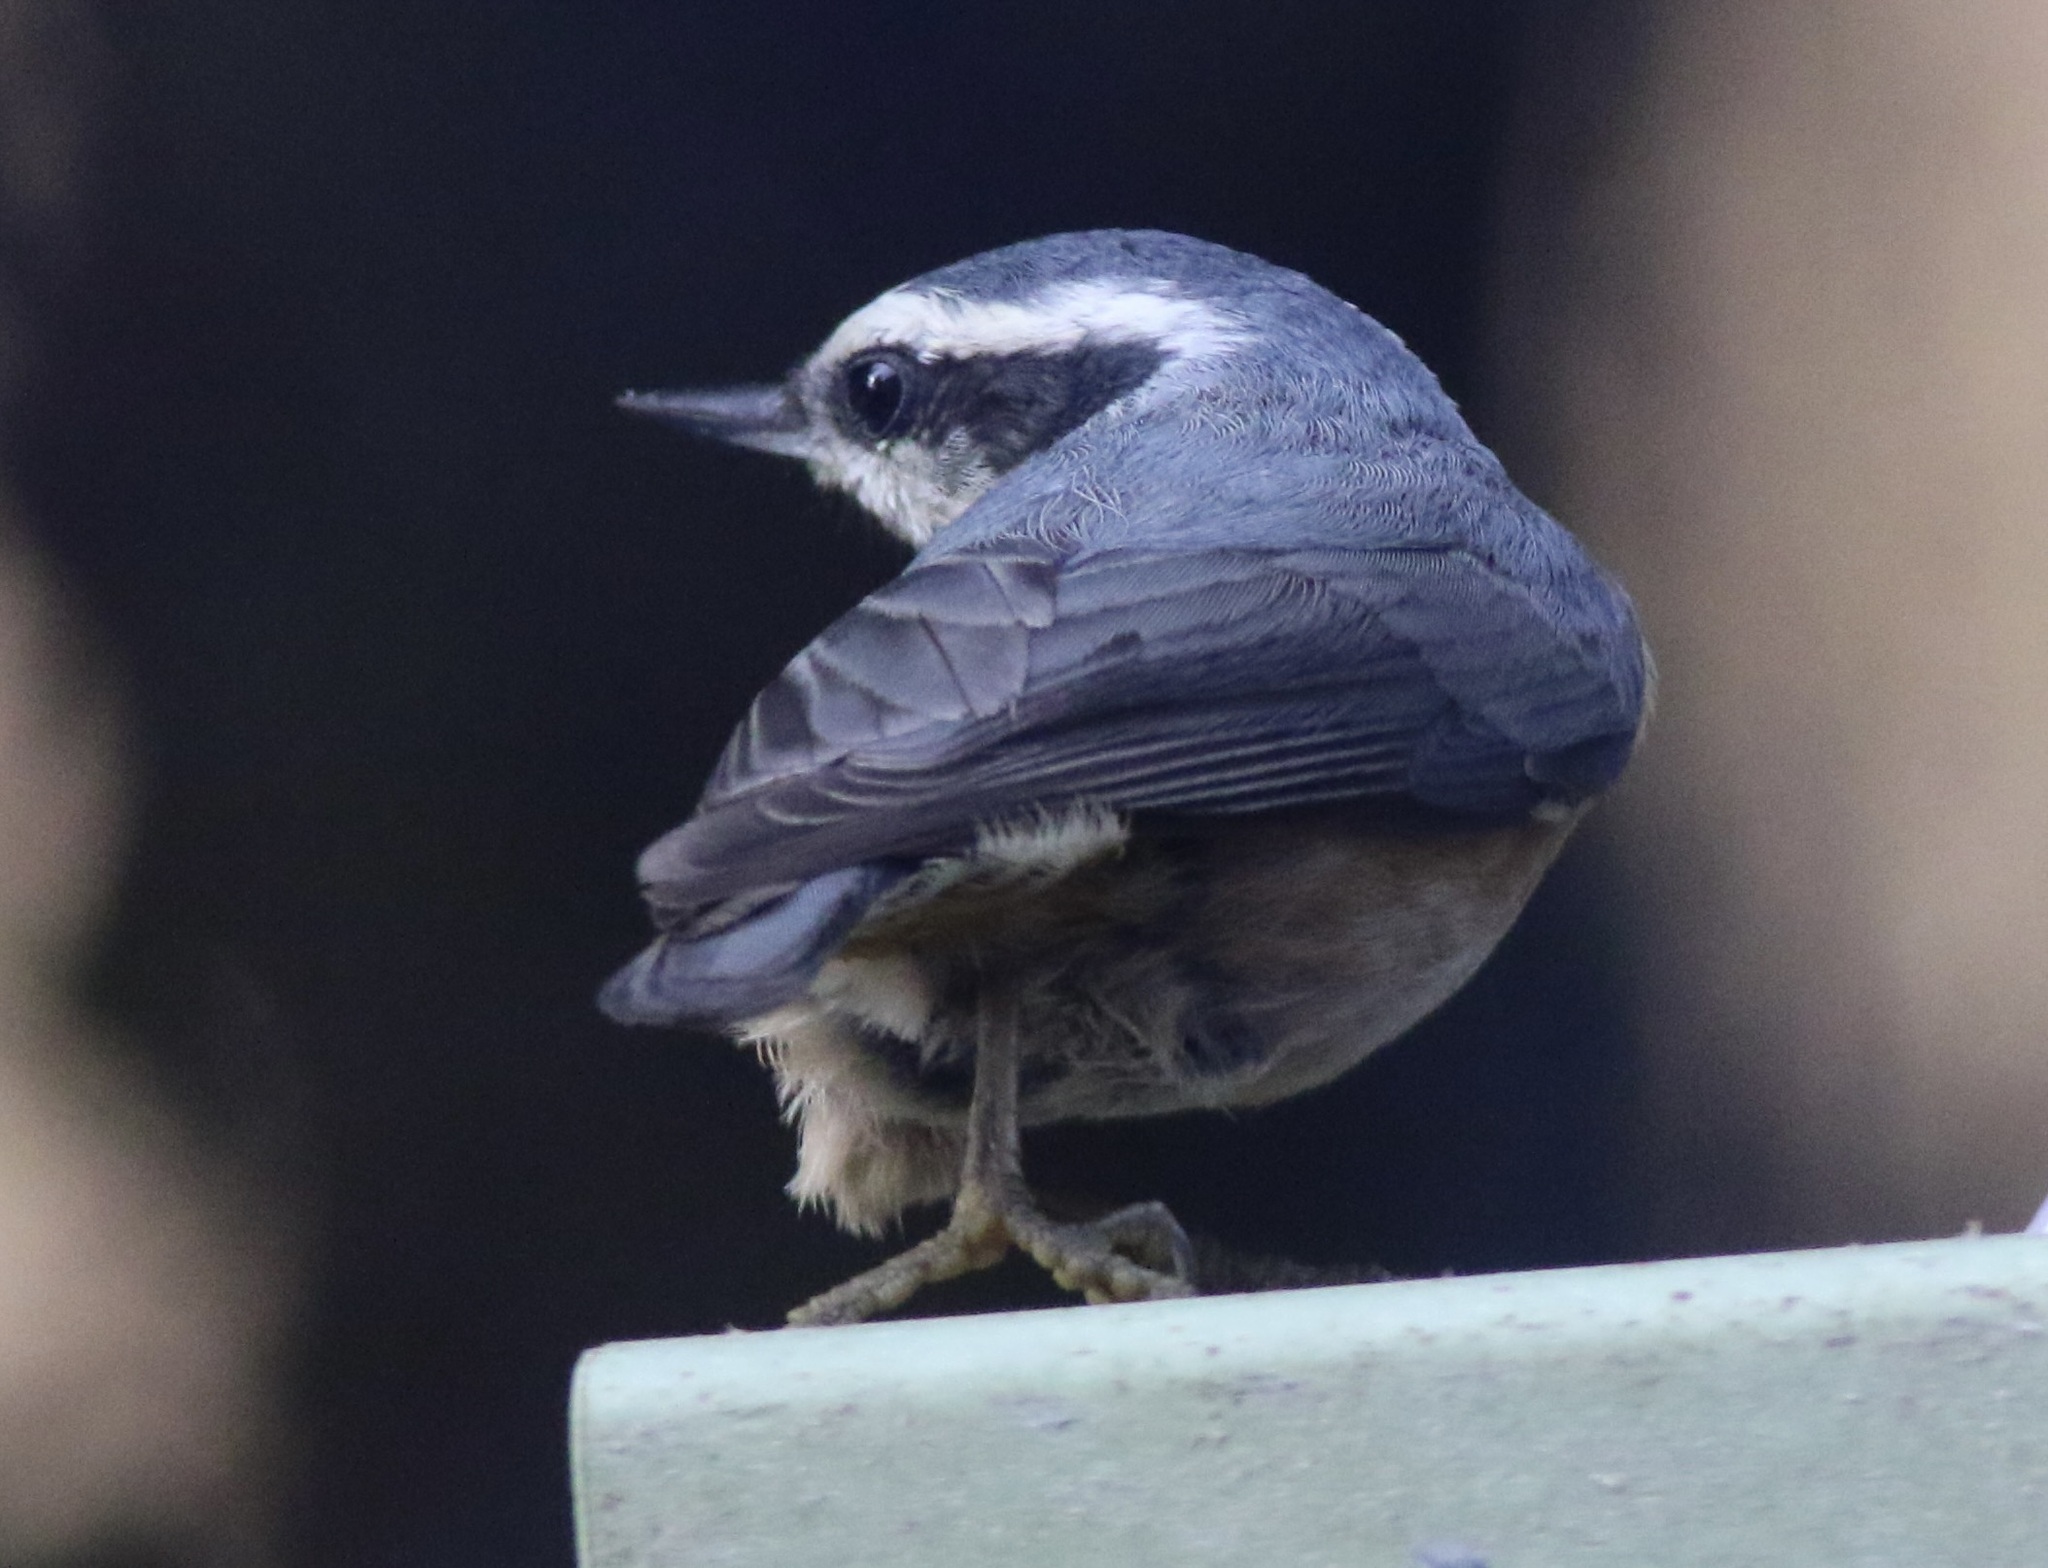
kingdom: Animalia
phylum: Chordata
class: Aves
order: Passeriformes
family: Sittidae
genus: Sitta
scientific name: Sitta canadensis
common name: Red-breasted nuthatch
